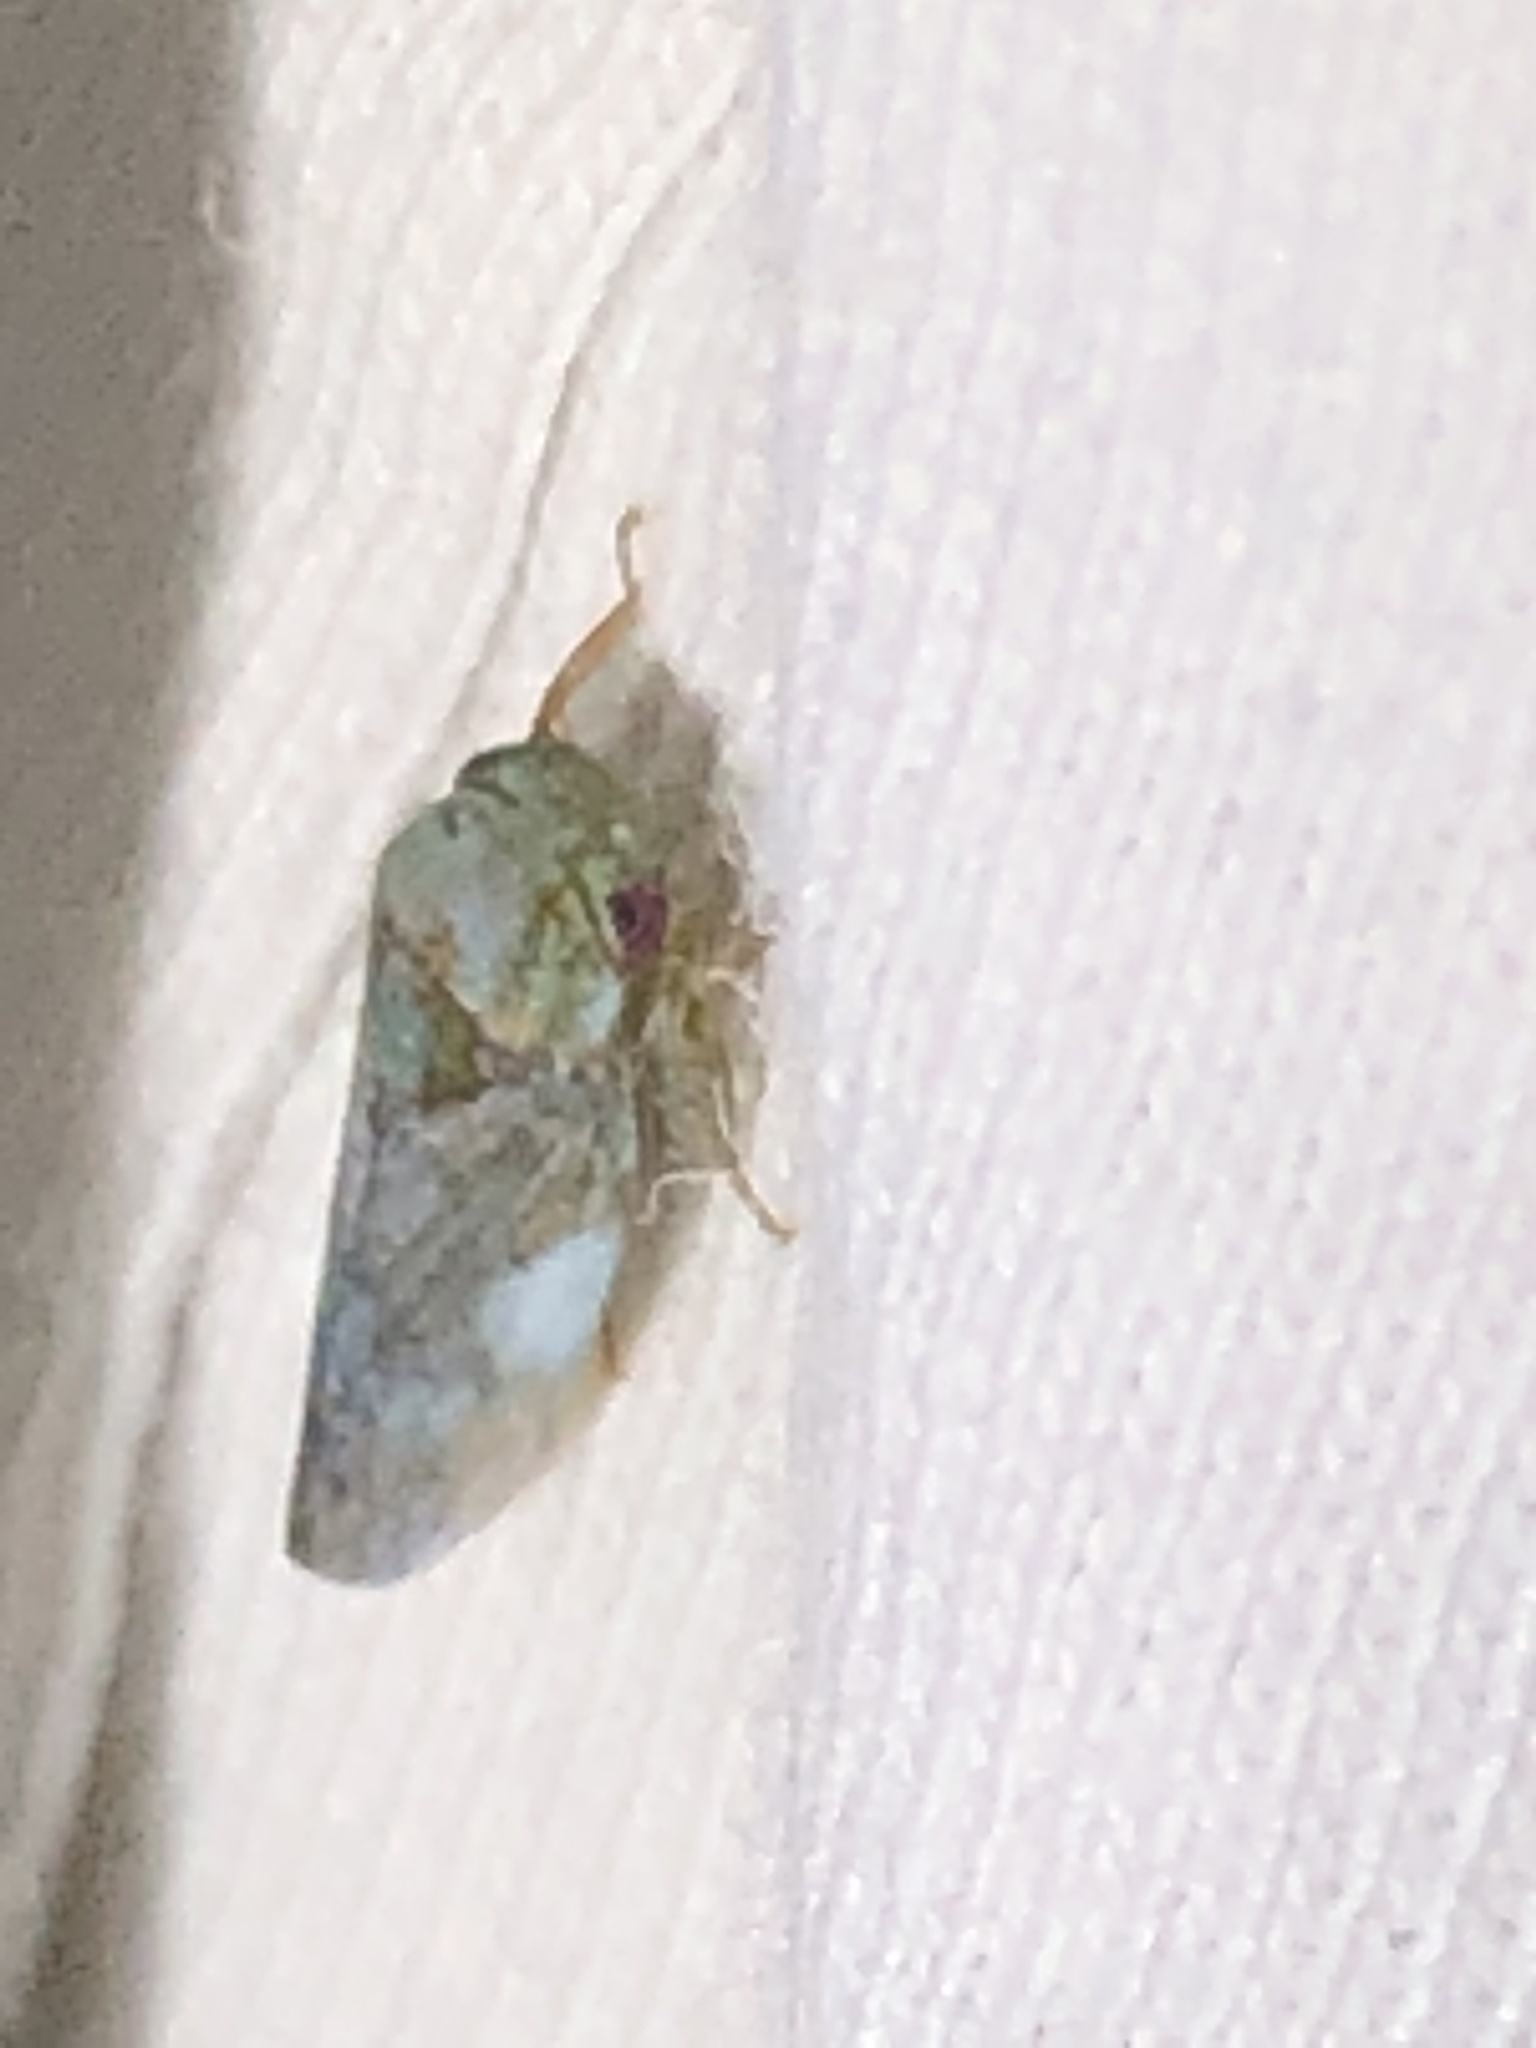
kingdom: Animalia
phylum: Arthropoda
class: Insecta
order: Hemiptera
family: Cicadellidae
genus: Polana
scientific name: Polana quadrinotata
